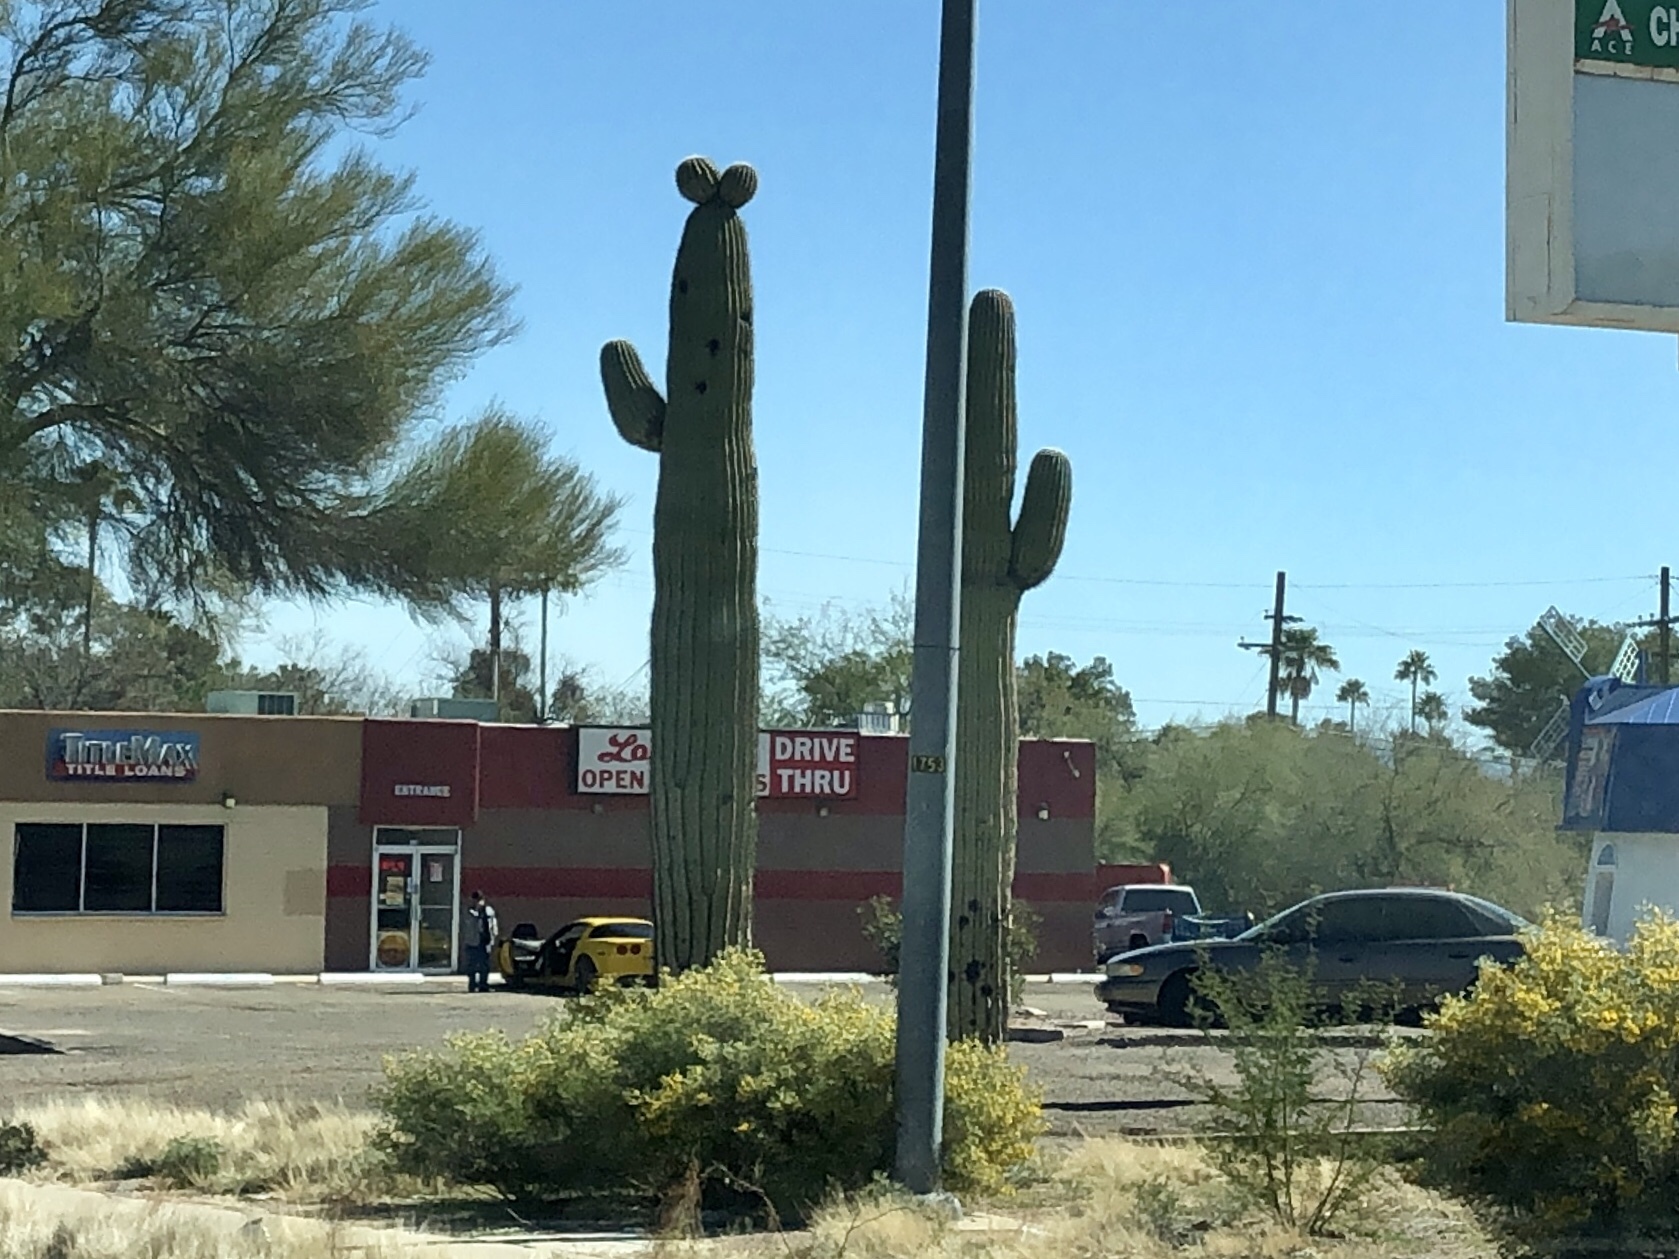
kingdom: Plantae
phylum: Tracheophyta
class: Magnoliopsida
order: Caryophyllales
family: Cactaceae
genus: Carnegiea
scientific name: Carnegiea gigantea
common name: Saguaro
